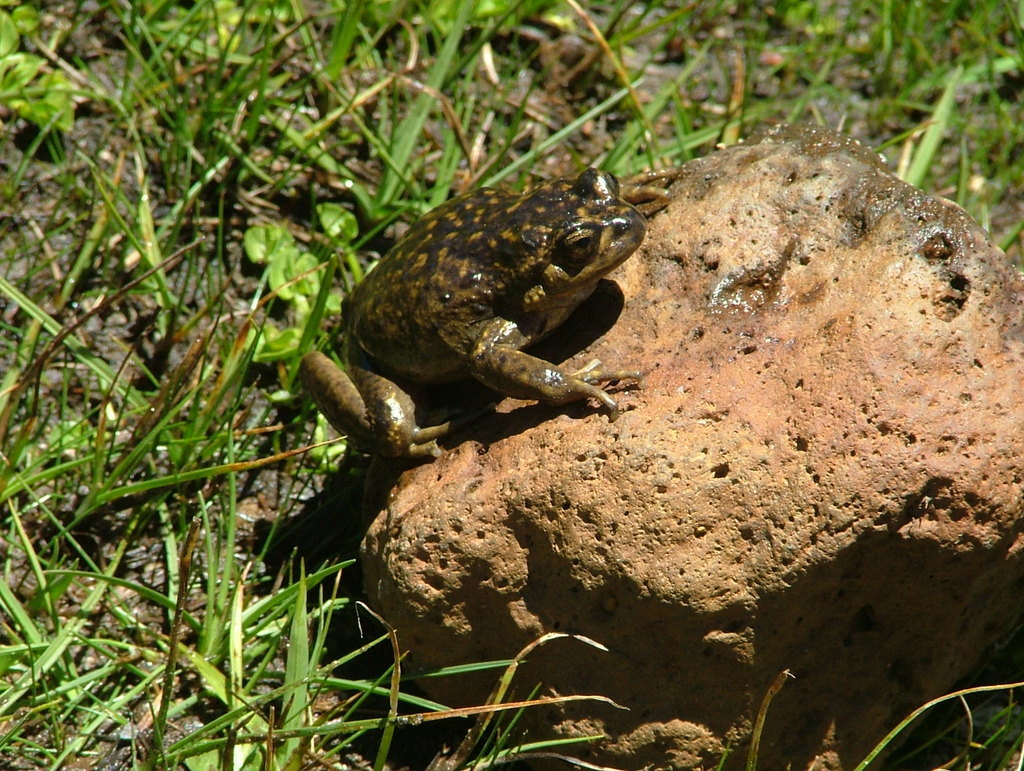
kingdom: Animalia
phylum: Chordata
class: Amphibia
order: Anura
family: Alsodidae
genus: Alsodes
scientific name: Alsodes pehuenche
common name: Pehuenche spiny-chest frog
